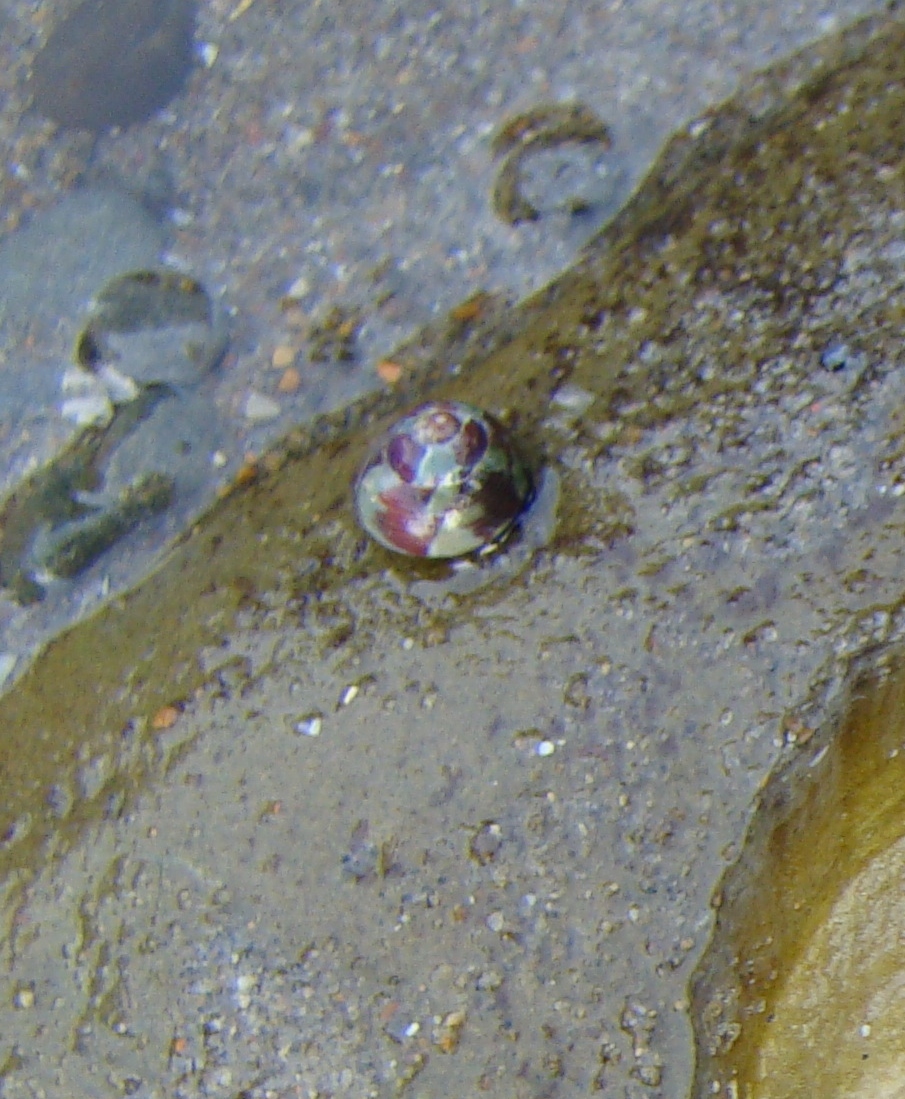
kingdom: Animalia
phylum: Mollusca
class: Gastropoda
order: Trochida
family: Trochidae
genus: Micrelenchus
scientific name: Micrelenchus tessellatus
